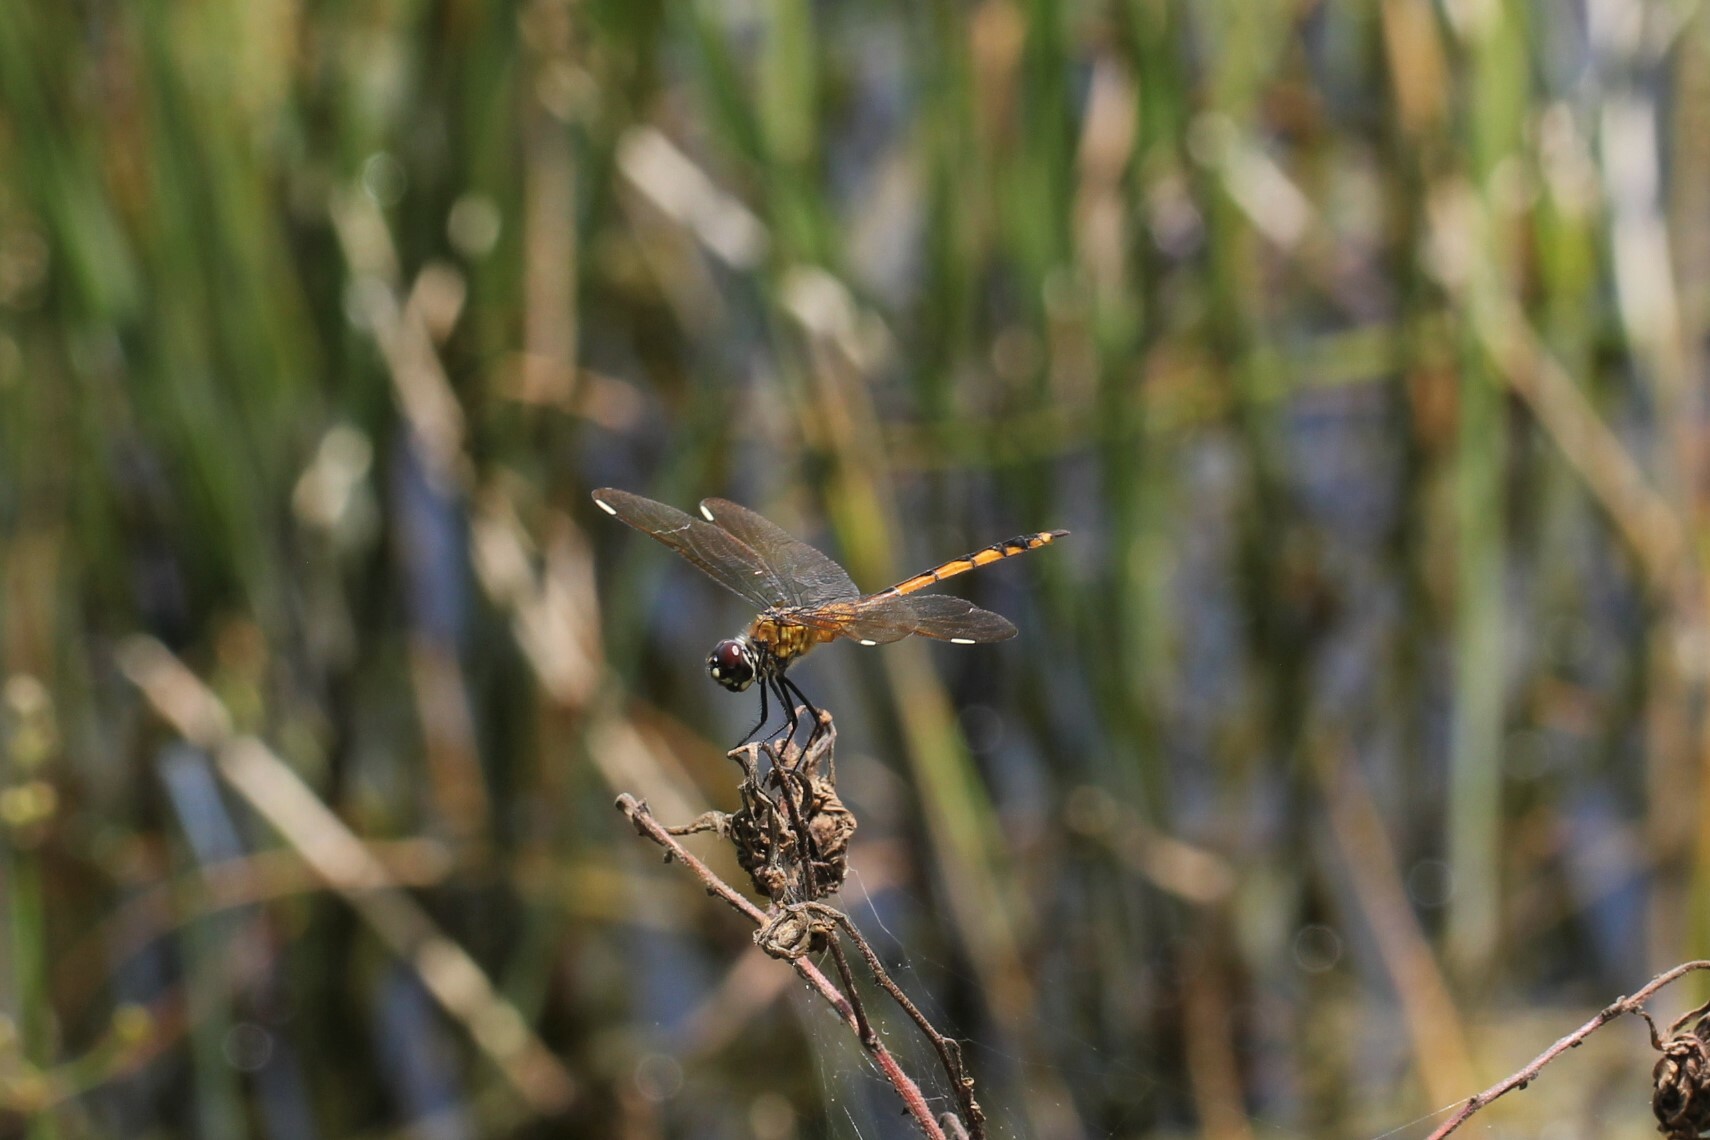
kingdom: Animalia
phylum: Arthropoda
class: Insecta
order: Odonata
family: Libellulidae
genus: Brachymesia
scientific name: Brachymesia gravida
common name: Four-spotted pennant
